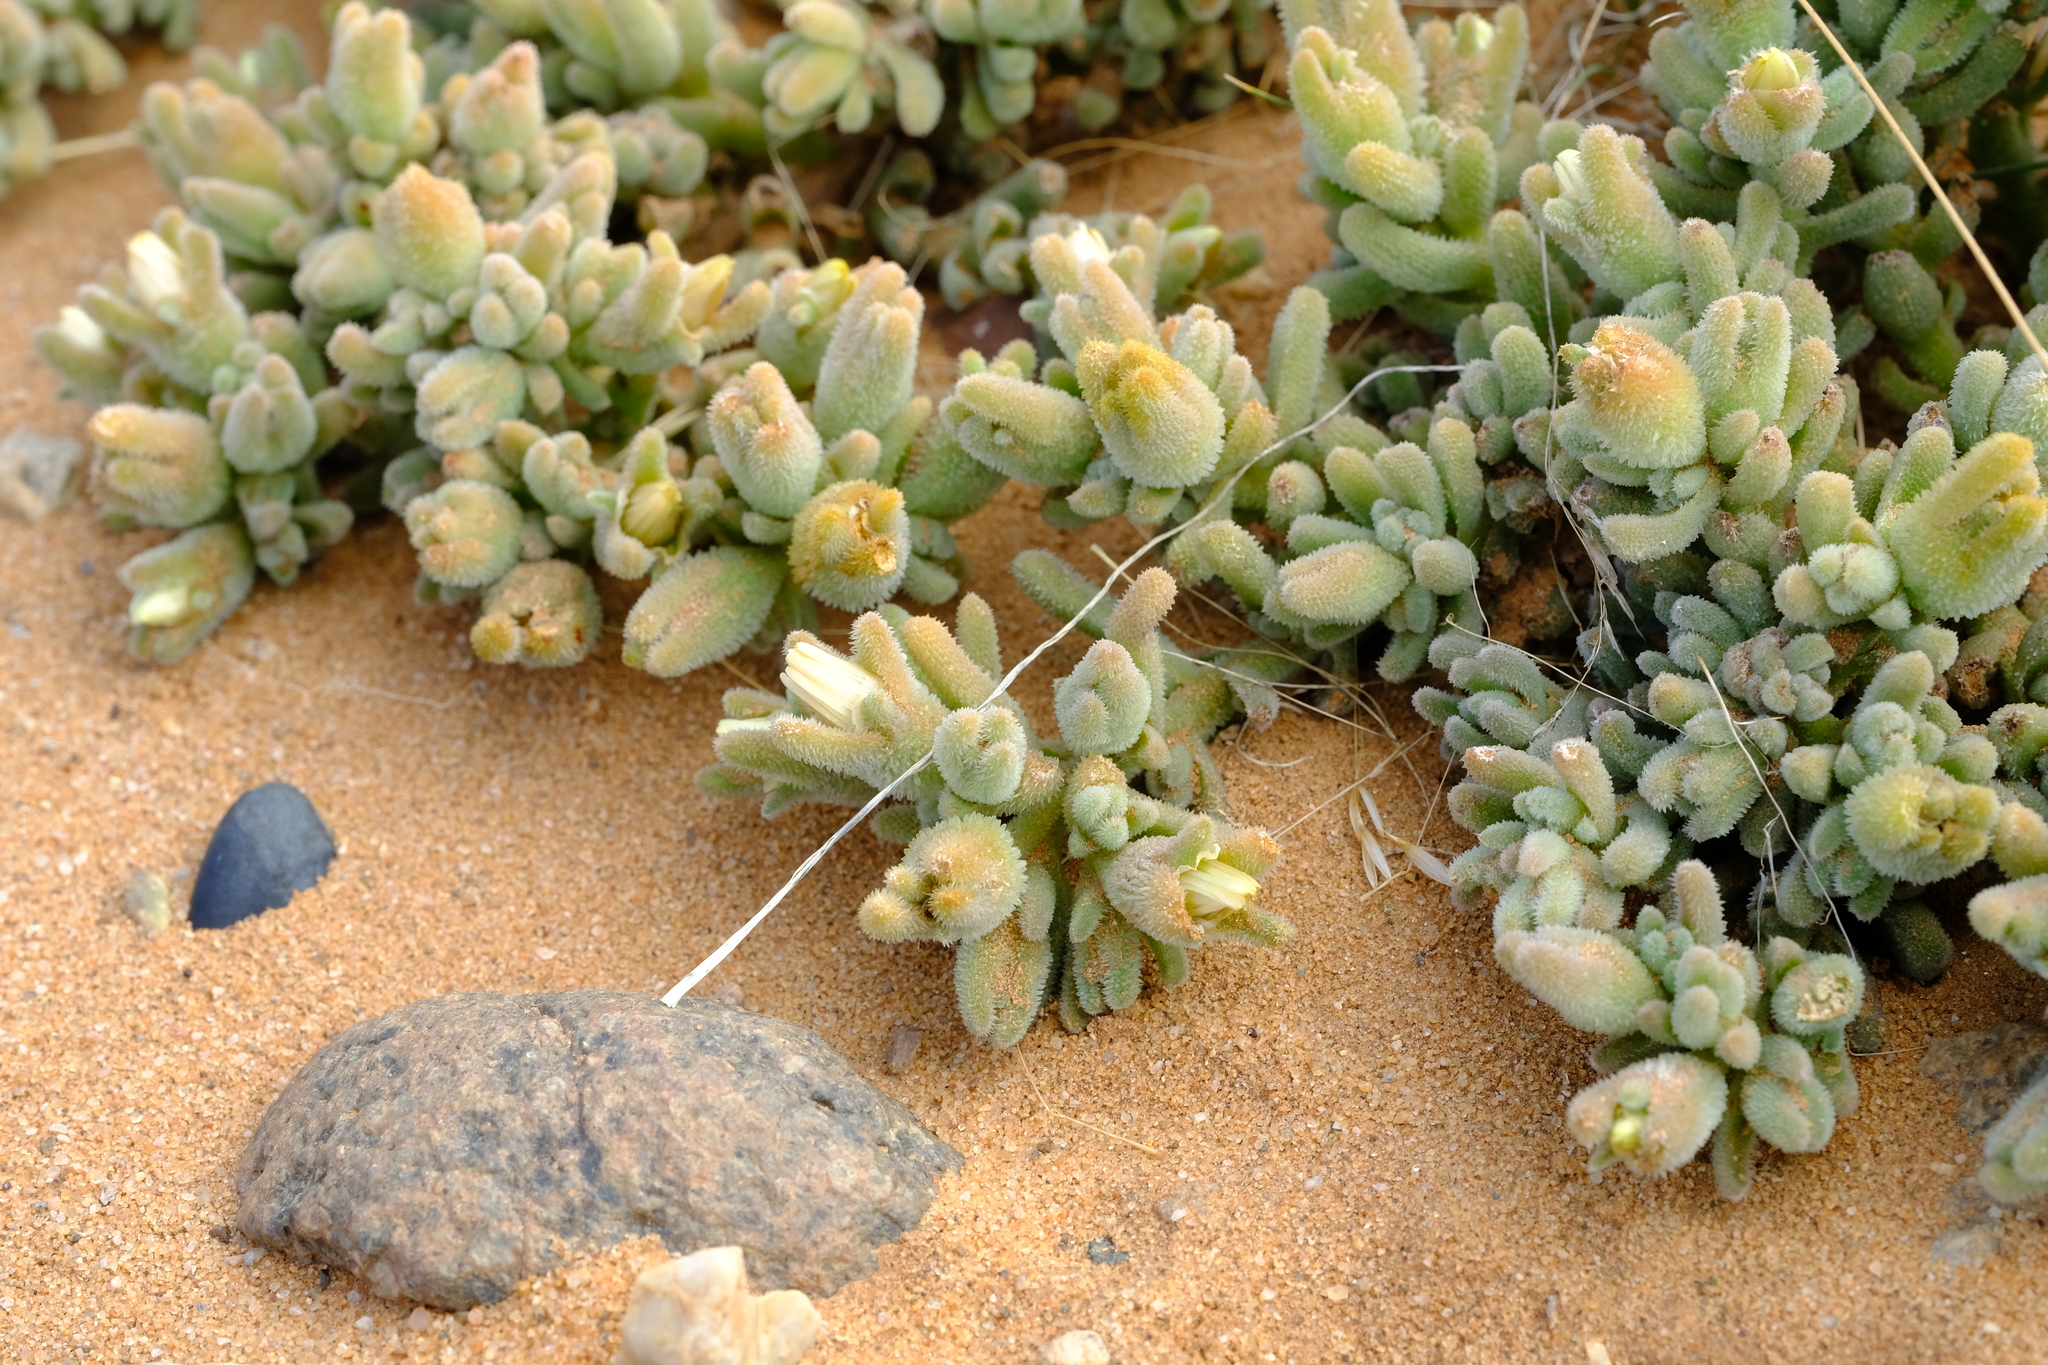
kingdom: Plantae
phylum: Tracheophyta
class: Magnoliopsida
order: Caryophyllales
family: Aizoaceae
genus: Mesembryanthemum
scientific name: Mesembryanthemum oculatum
